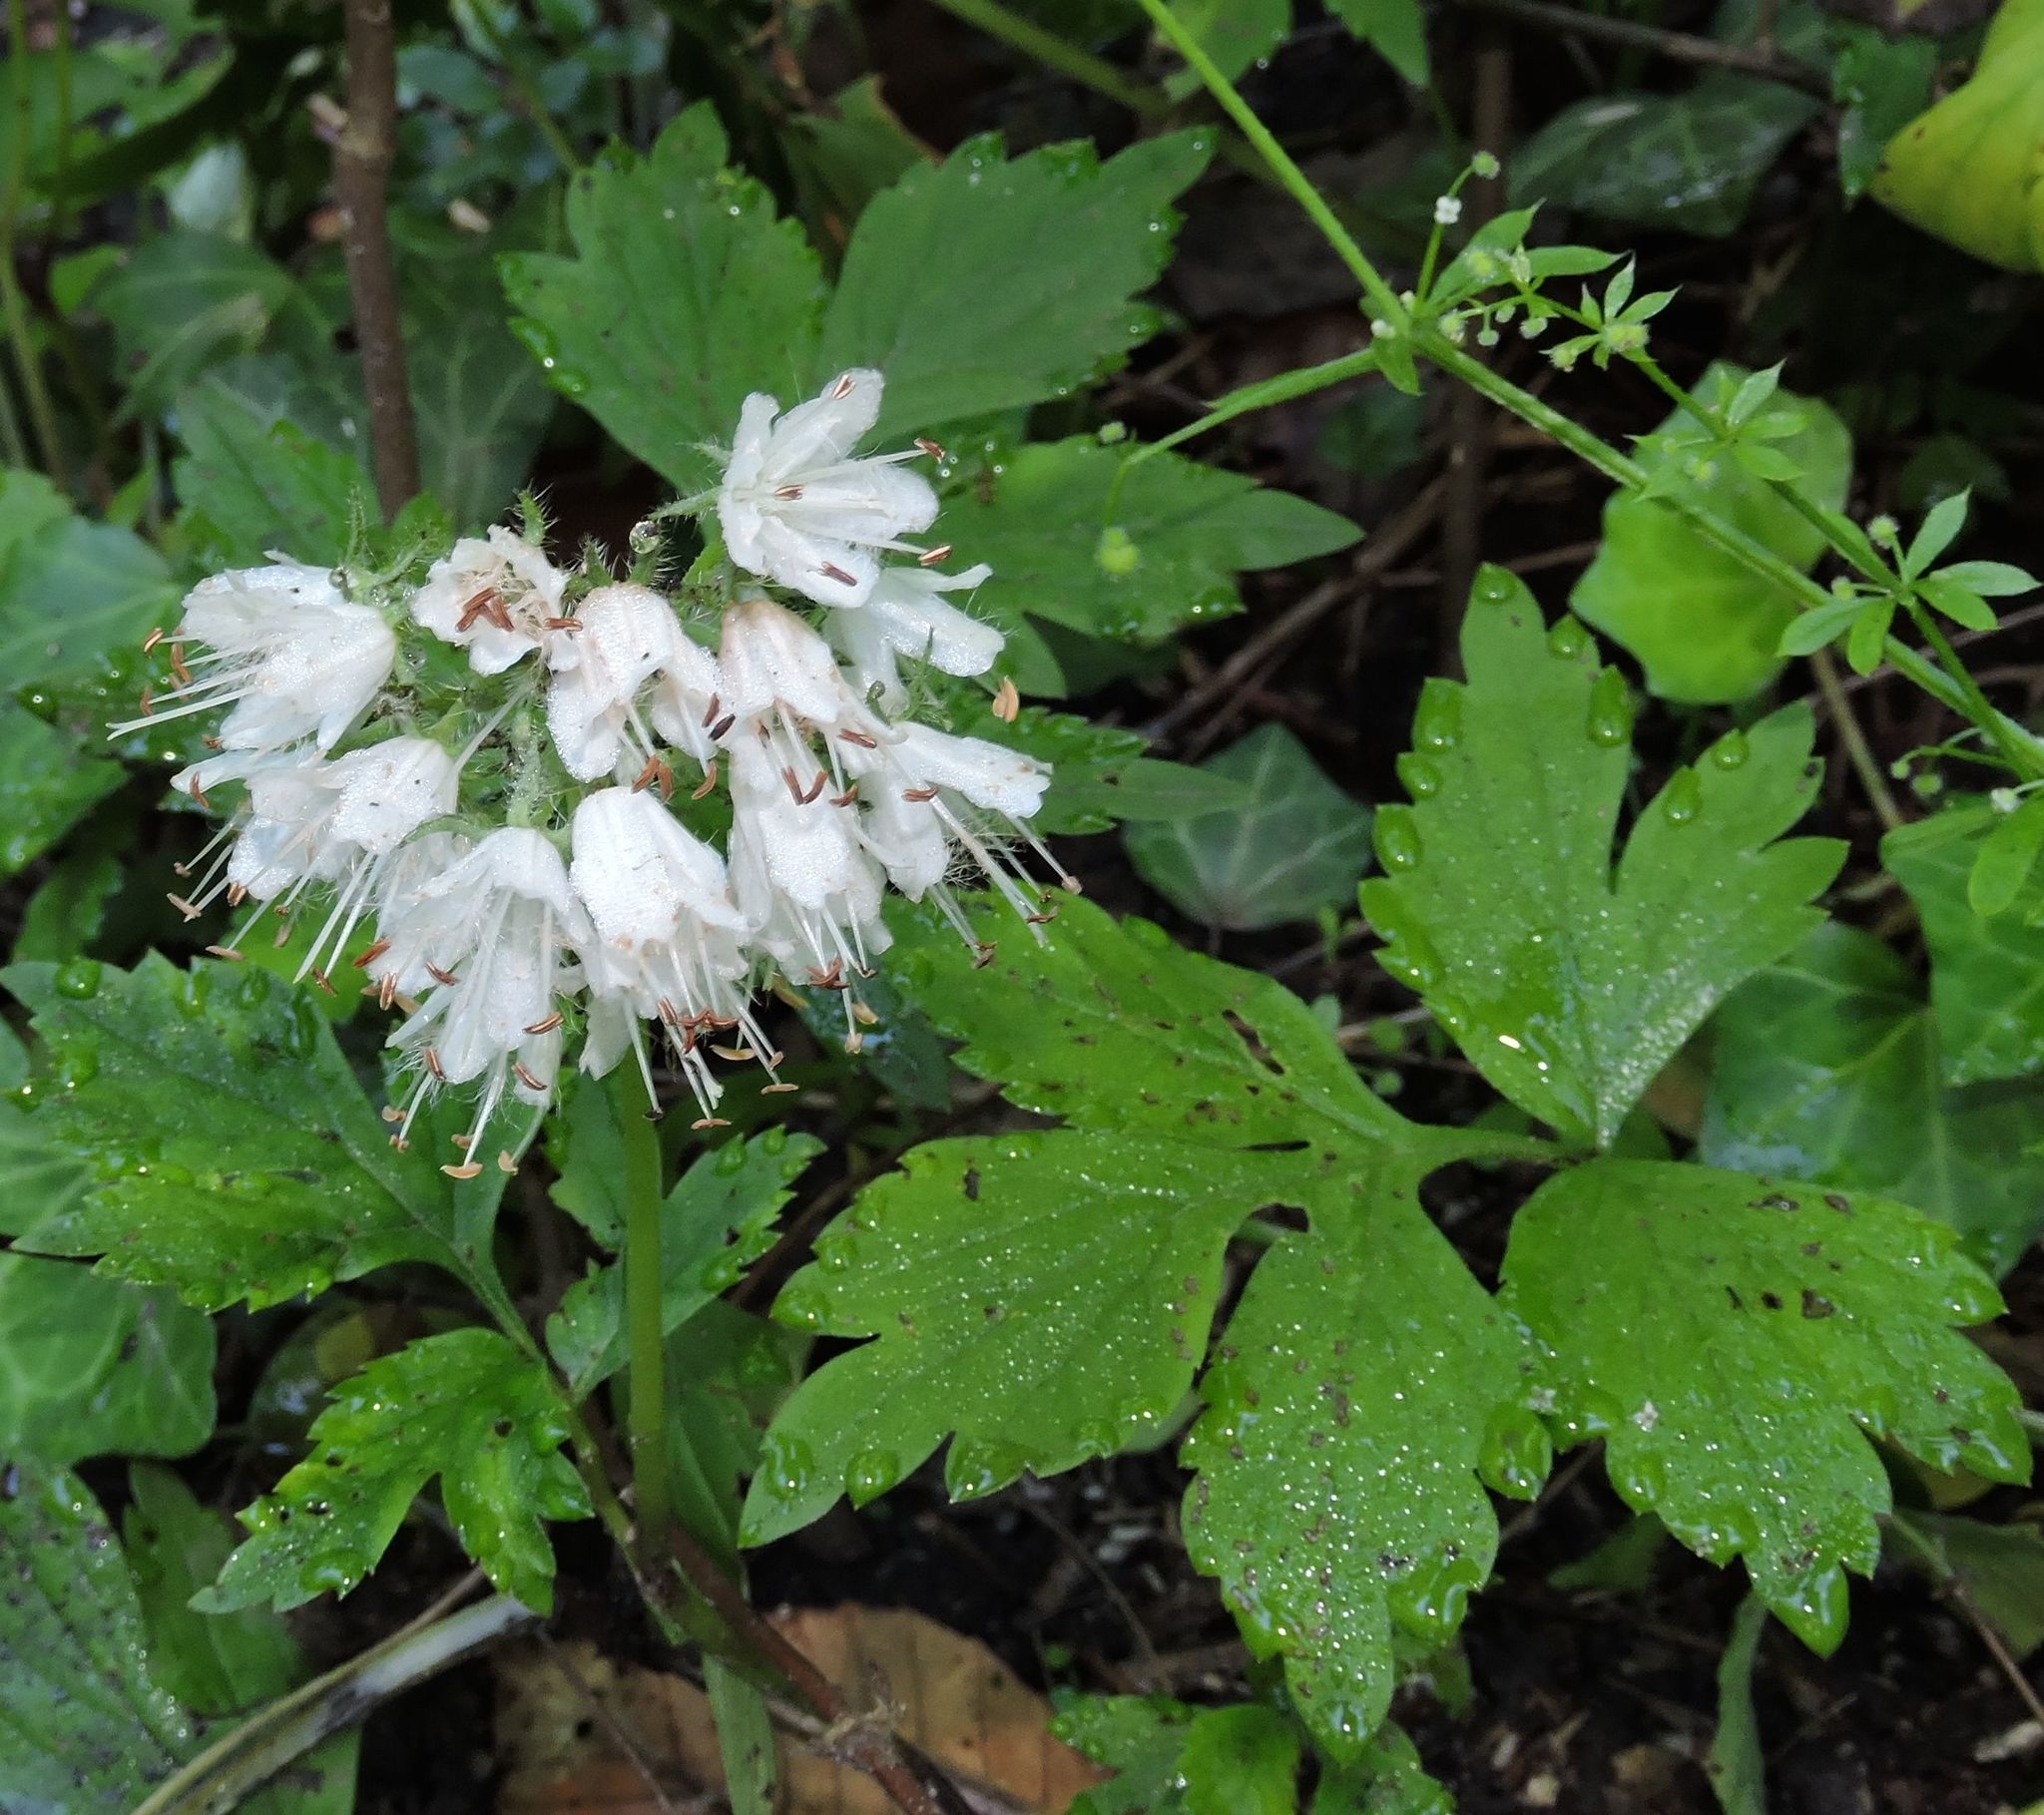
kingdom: Plantae
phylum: Tracheophyta
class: Magnoliopsida
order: Boraginales
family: Hydrophyllaceae
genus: Hydrophyllum
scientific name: Hydrophyllum virginianum
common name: Virginia waterleaf
